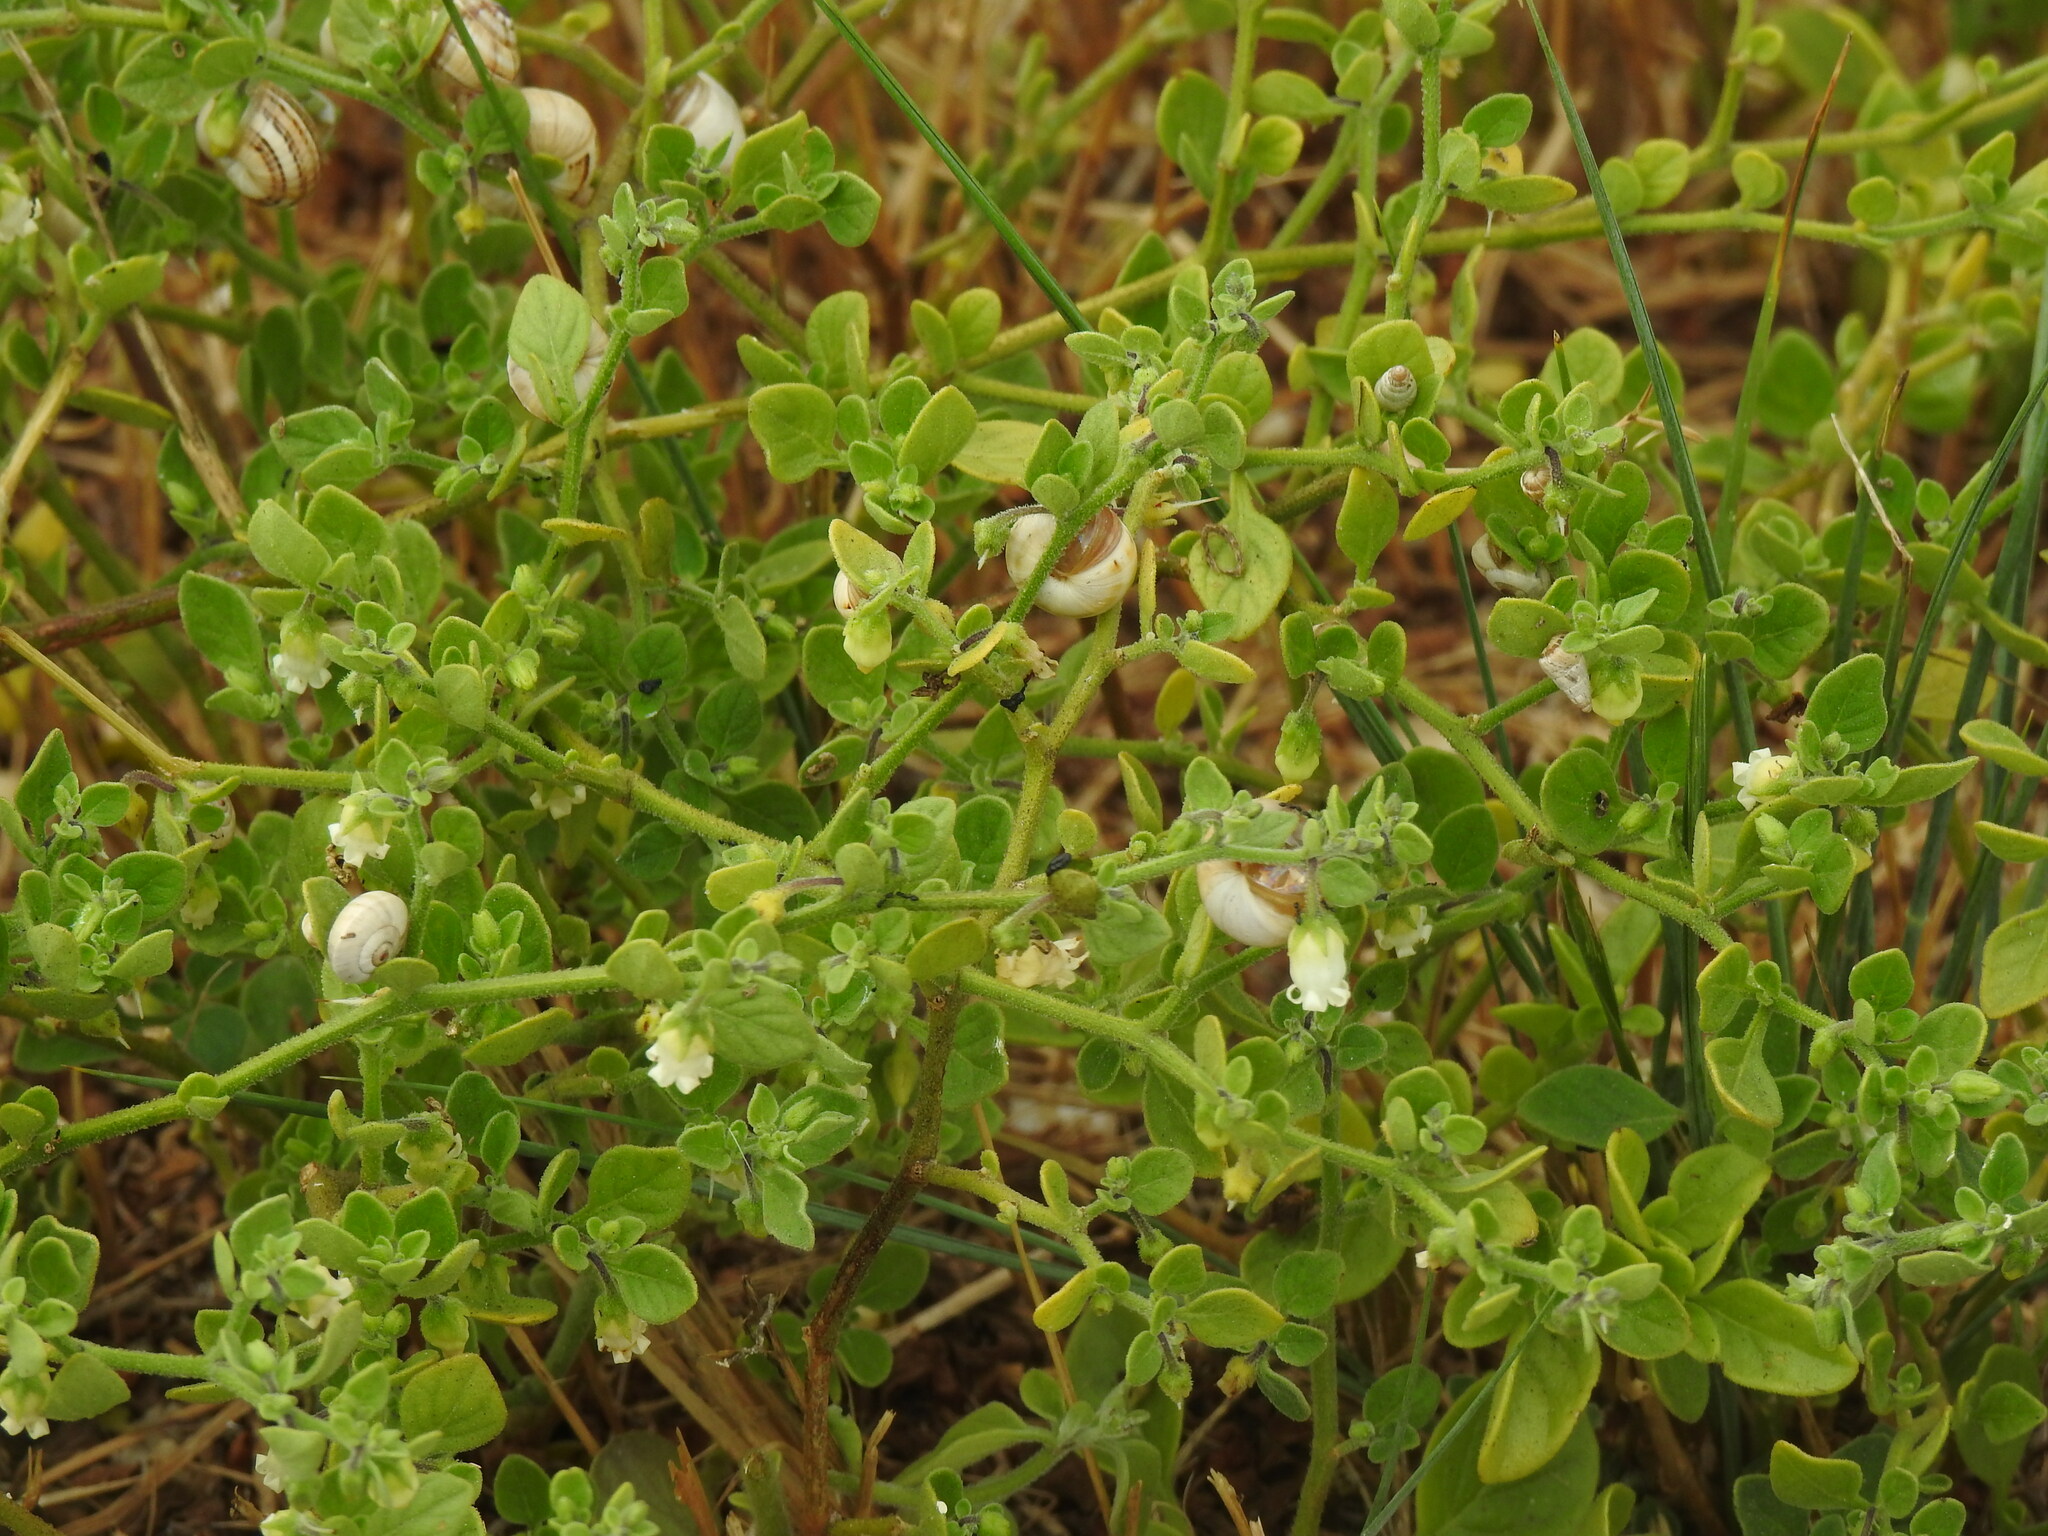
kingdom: Plantae
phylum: Tracheophyta
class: Magnoliopsida
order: Solanales
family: Solanaceae
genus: Salpichroa
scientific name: Salpichroa origanifolia
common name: Lily-of-the-valley-vine
